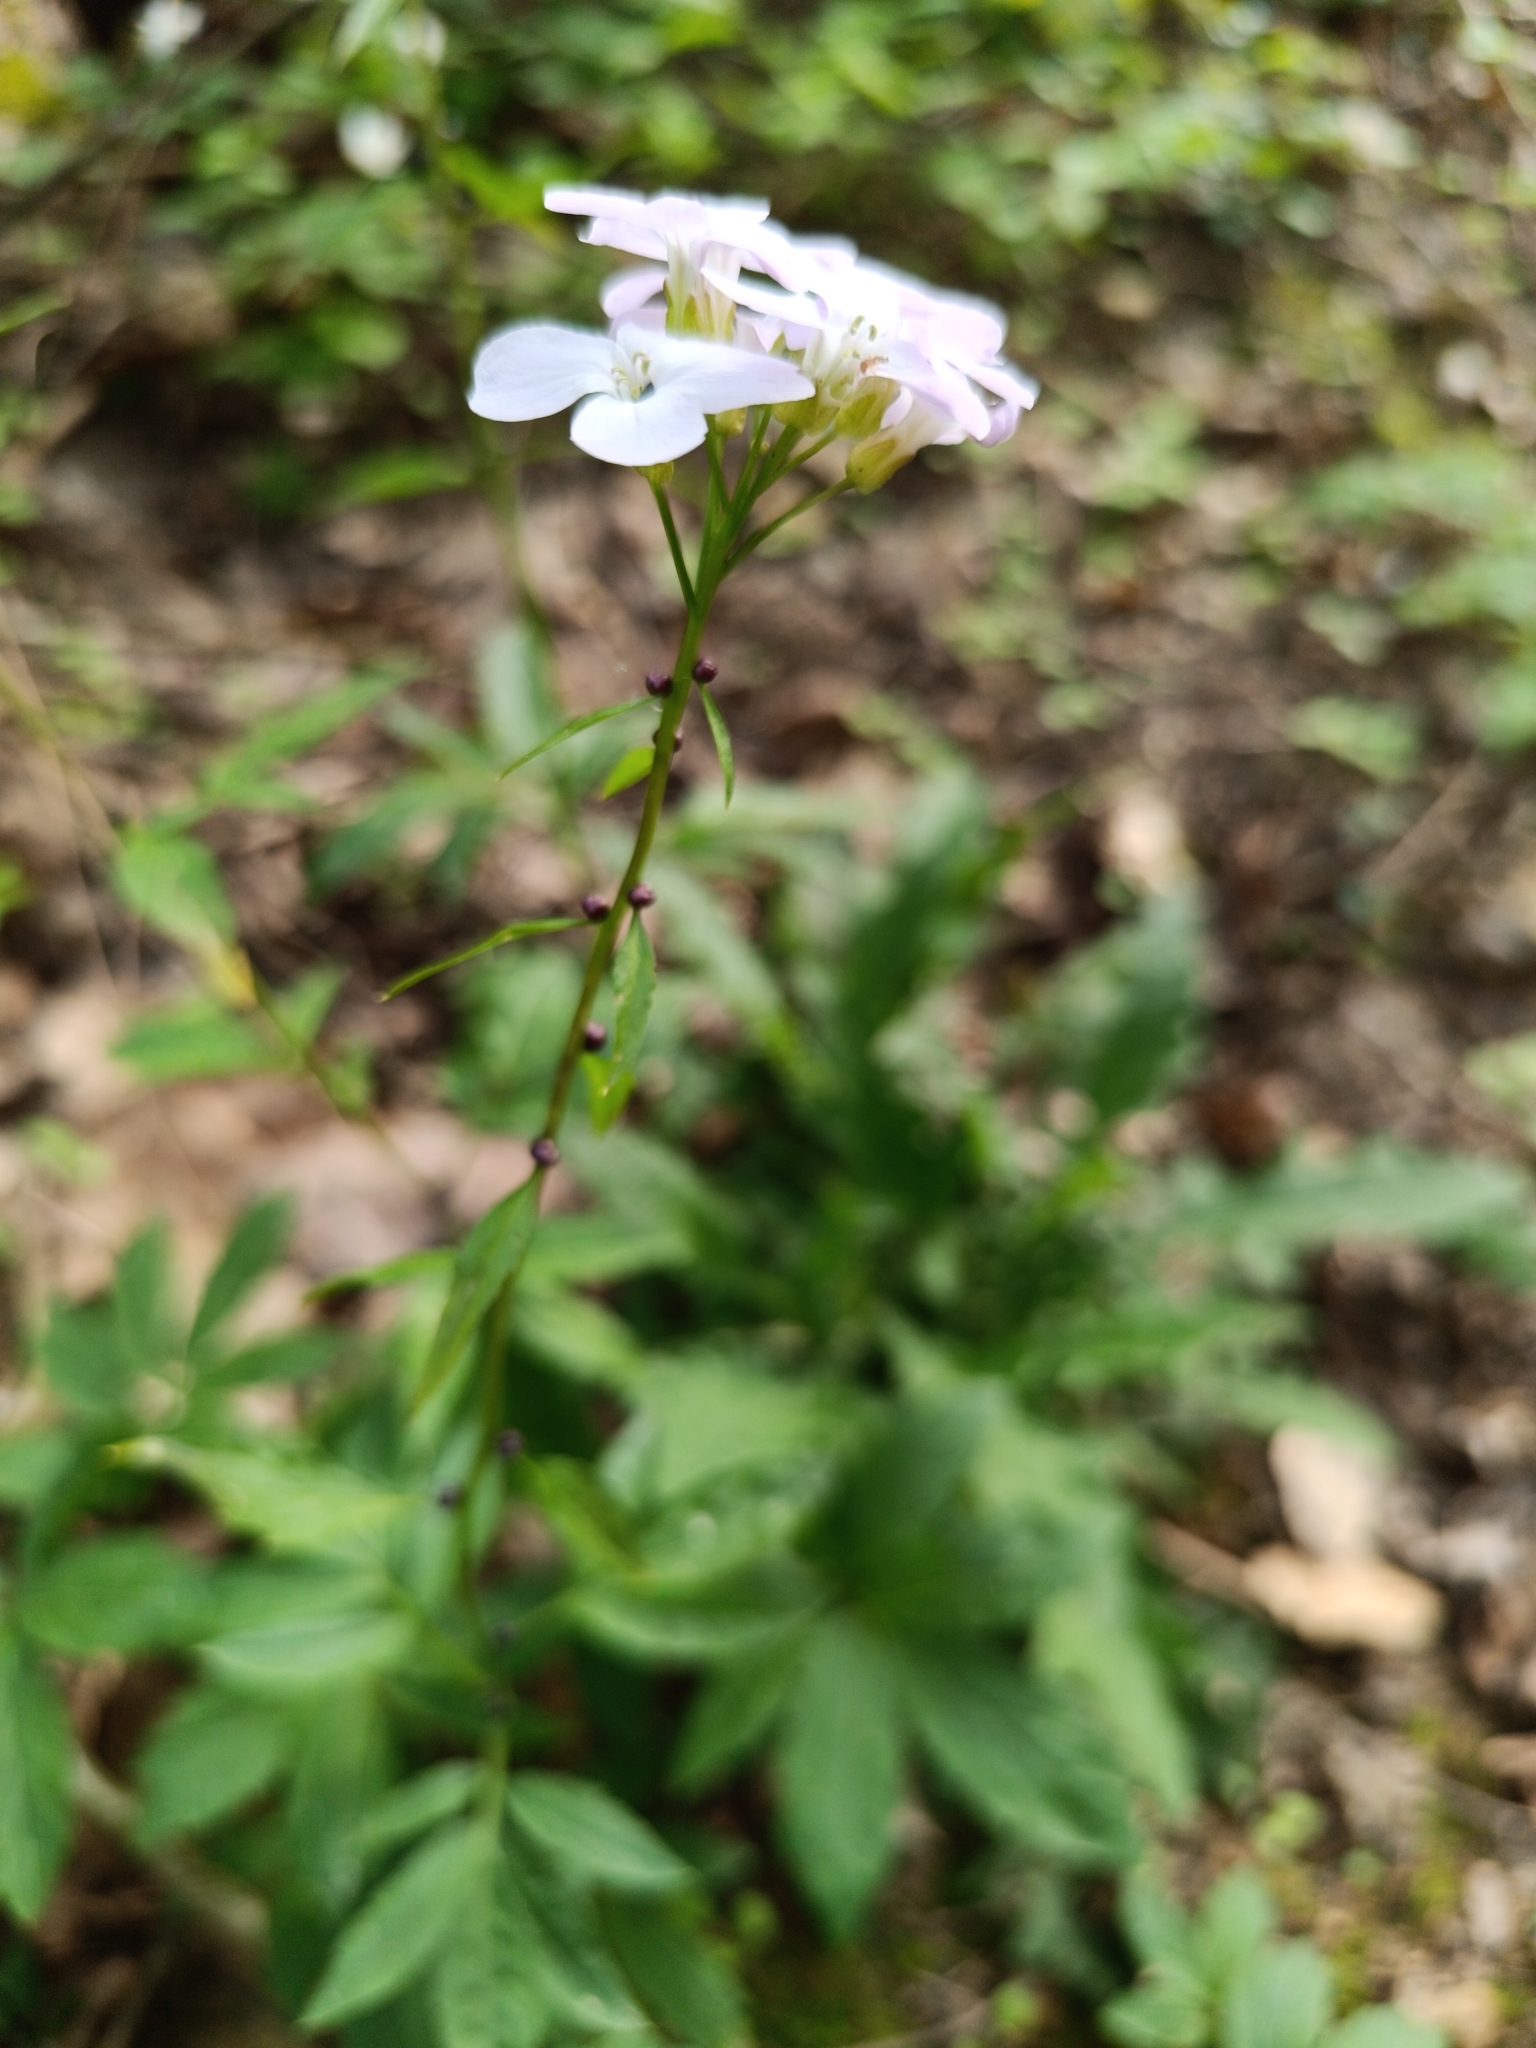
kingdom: Plantae
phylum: Tracheophyta
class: Magnoliopsida
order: Brassicales
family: Brassicaceae
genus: Cardamine
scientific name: Cardamine bulbifera
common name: Coralroot bittercress
